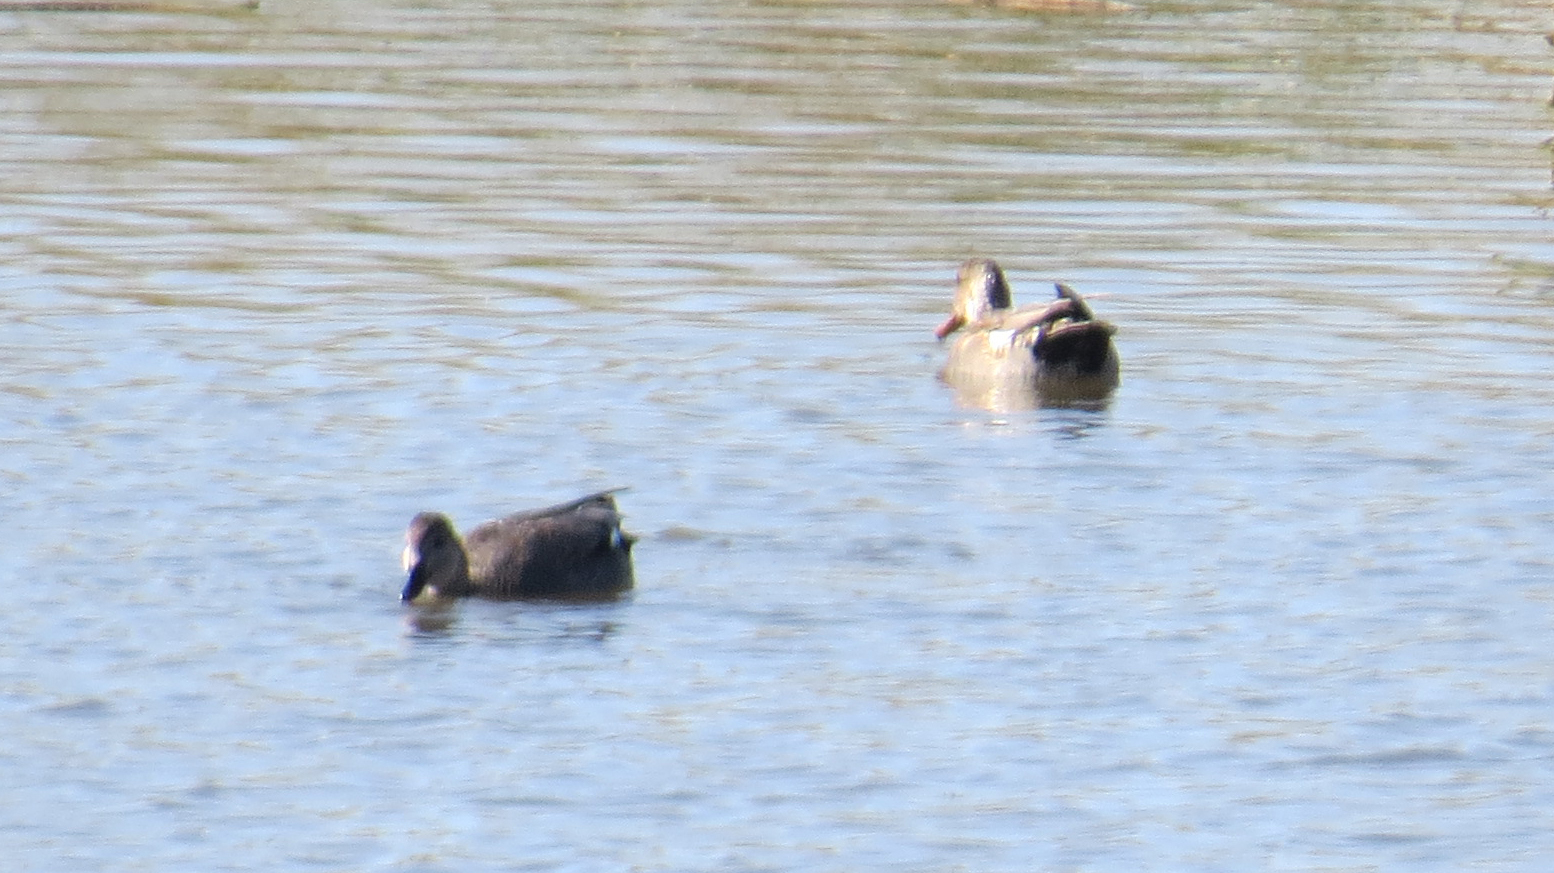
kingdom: Animalia
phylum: Chordata
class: Aves
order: Anseriformes
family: Anatidae
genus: Mareca
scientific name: Mareca strepera
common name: Gadwall
